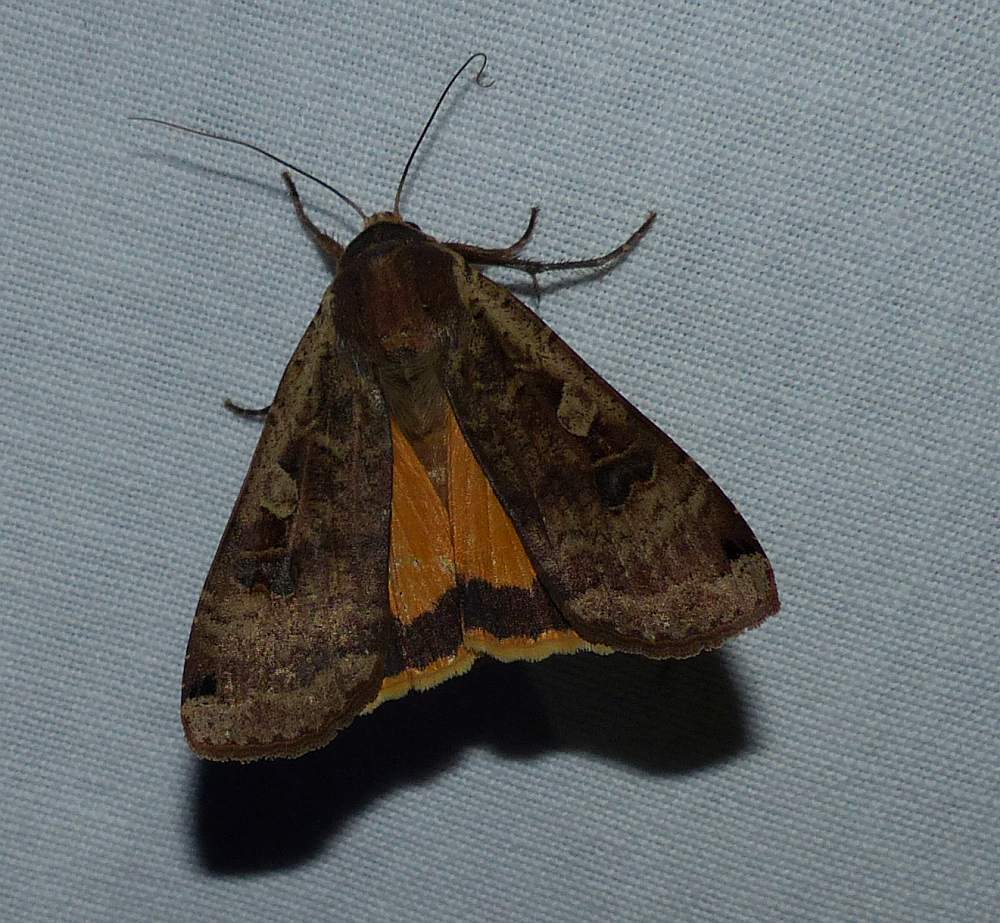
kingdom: Animalia
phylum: Arthropoda
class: Insecta
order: Lepidoptera
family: Noctuidae
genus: Noctua
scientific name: Noctua pronuba
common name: Large yellow underwing
